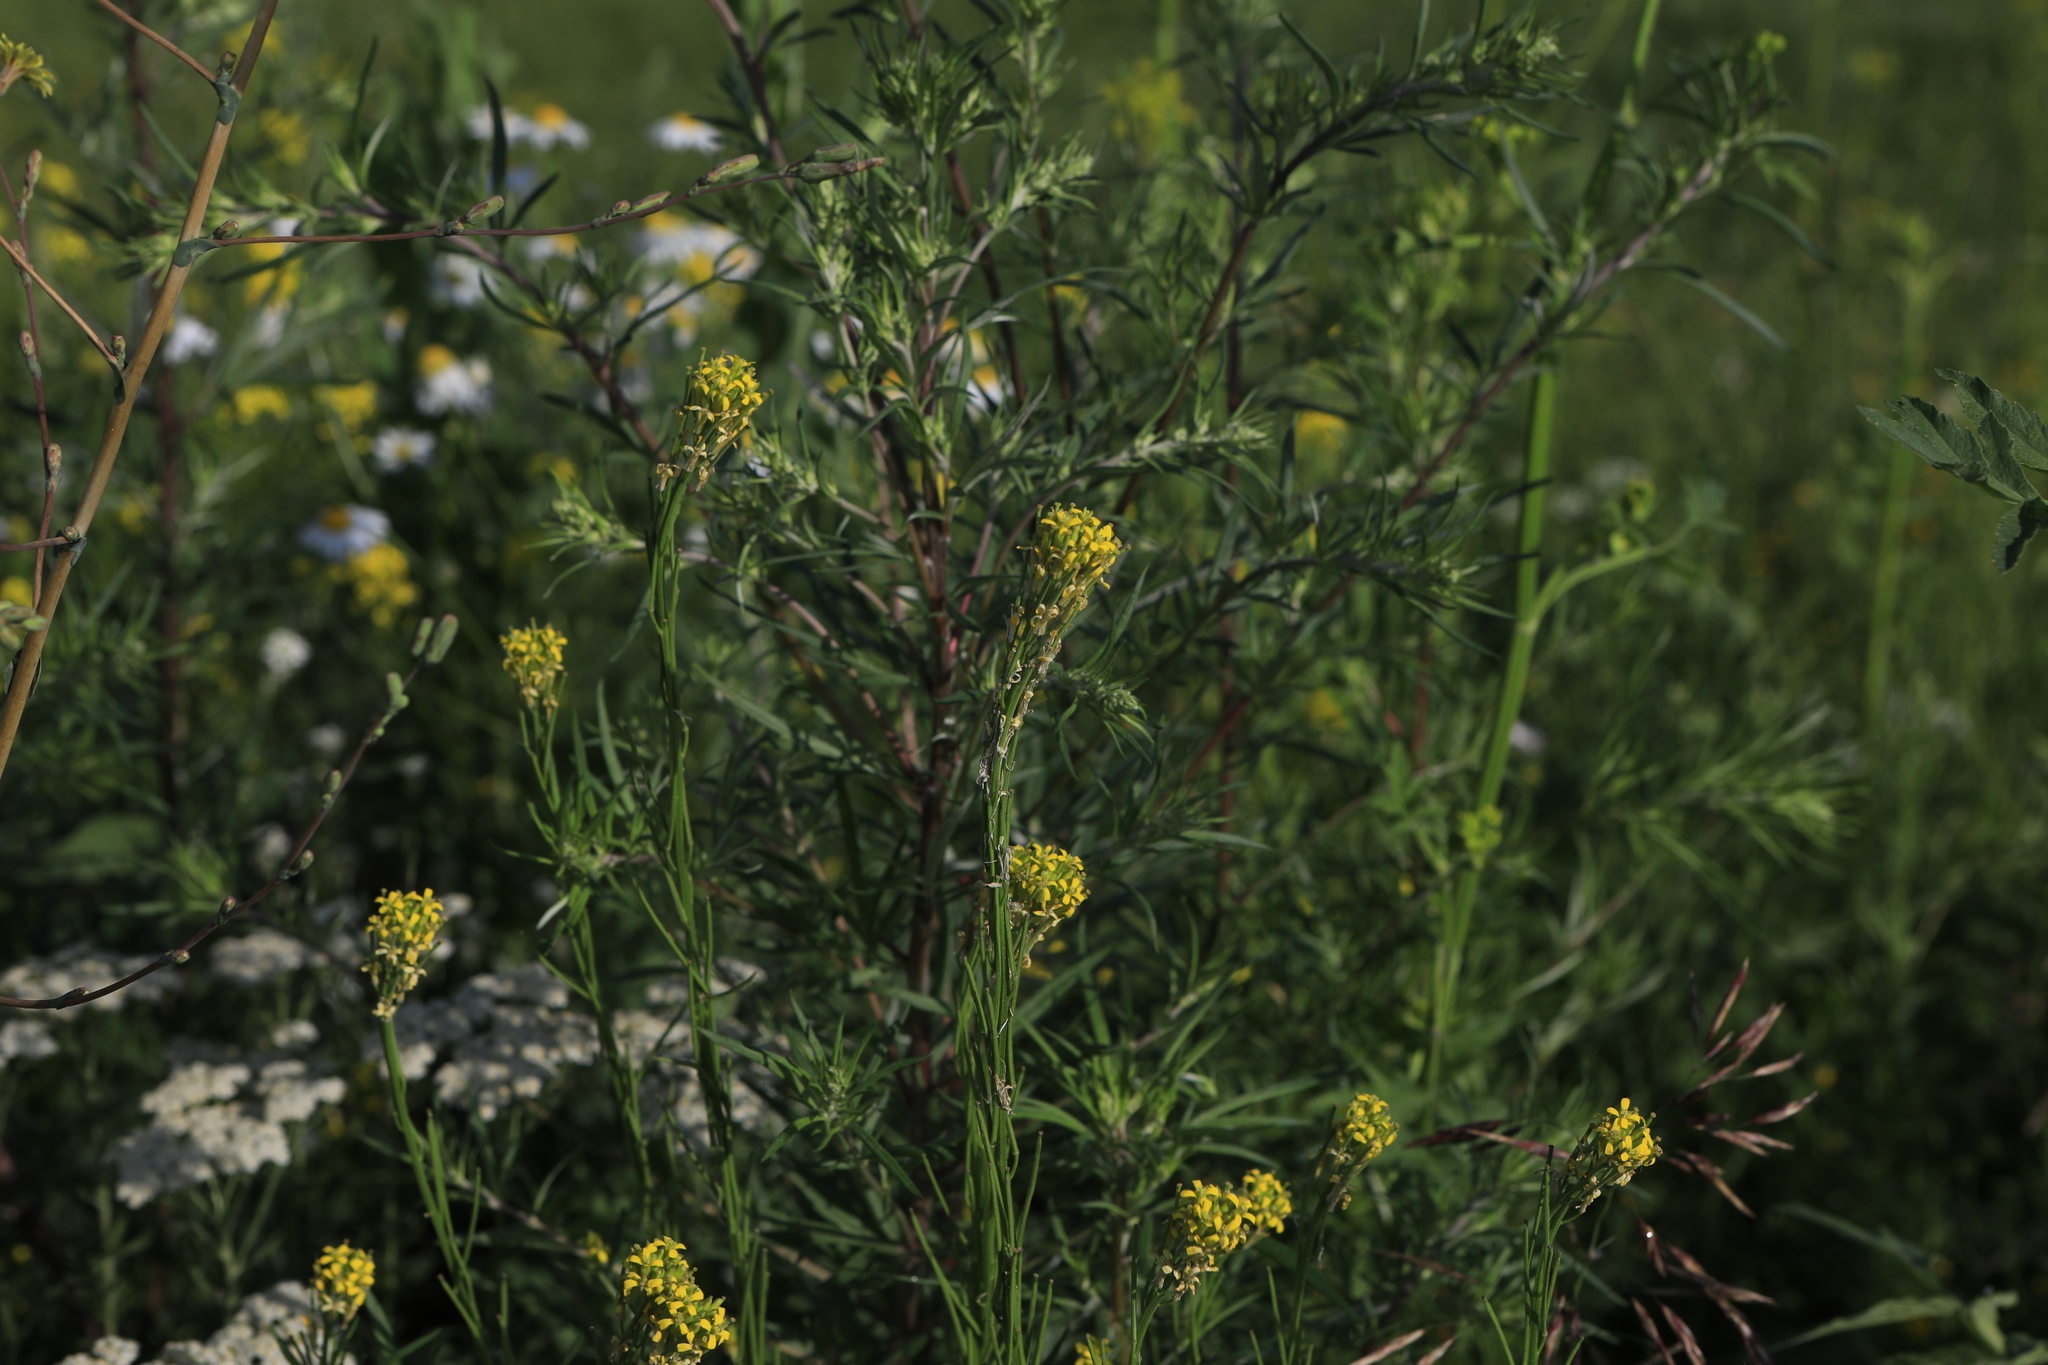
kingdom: Plantae
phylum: Tracheophyta
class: Magnoliopsida
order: Brassicales
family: Brassicaceae
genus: Erysimum
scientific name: Erysimum hieraciifolium
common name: European wallflower
